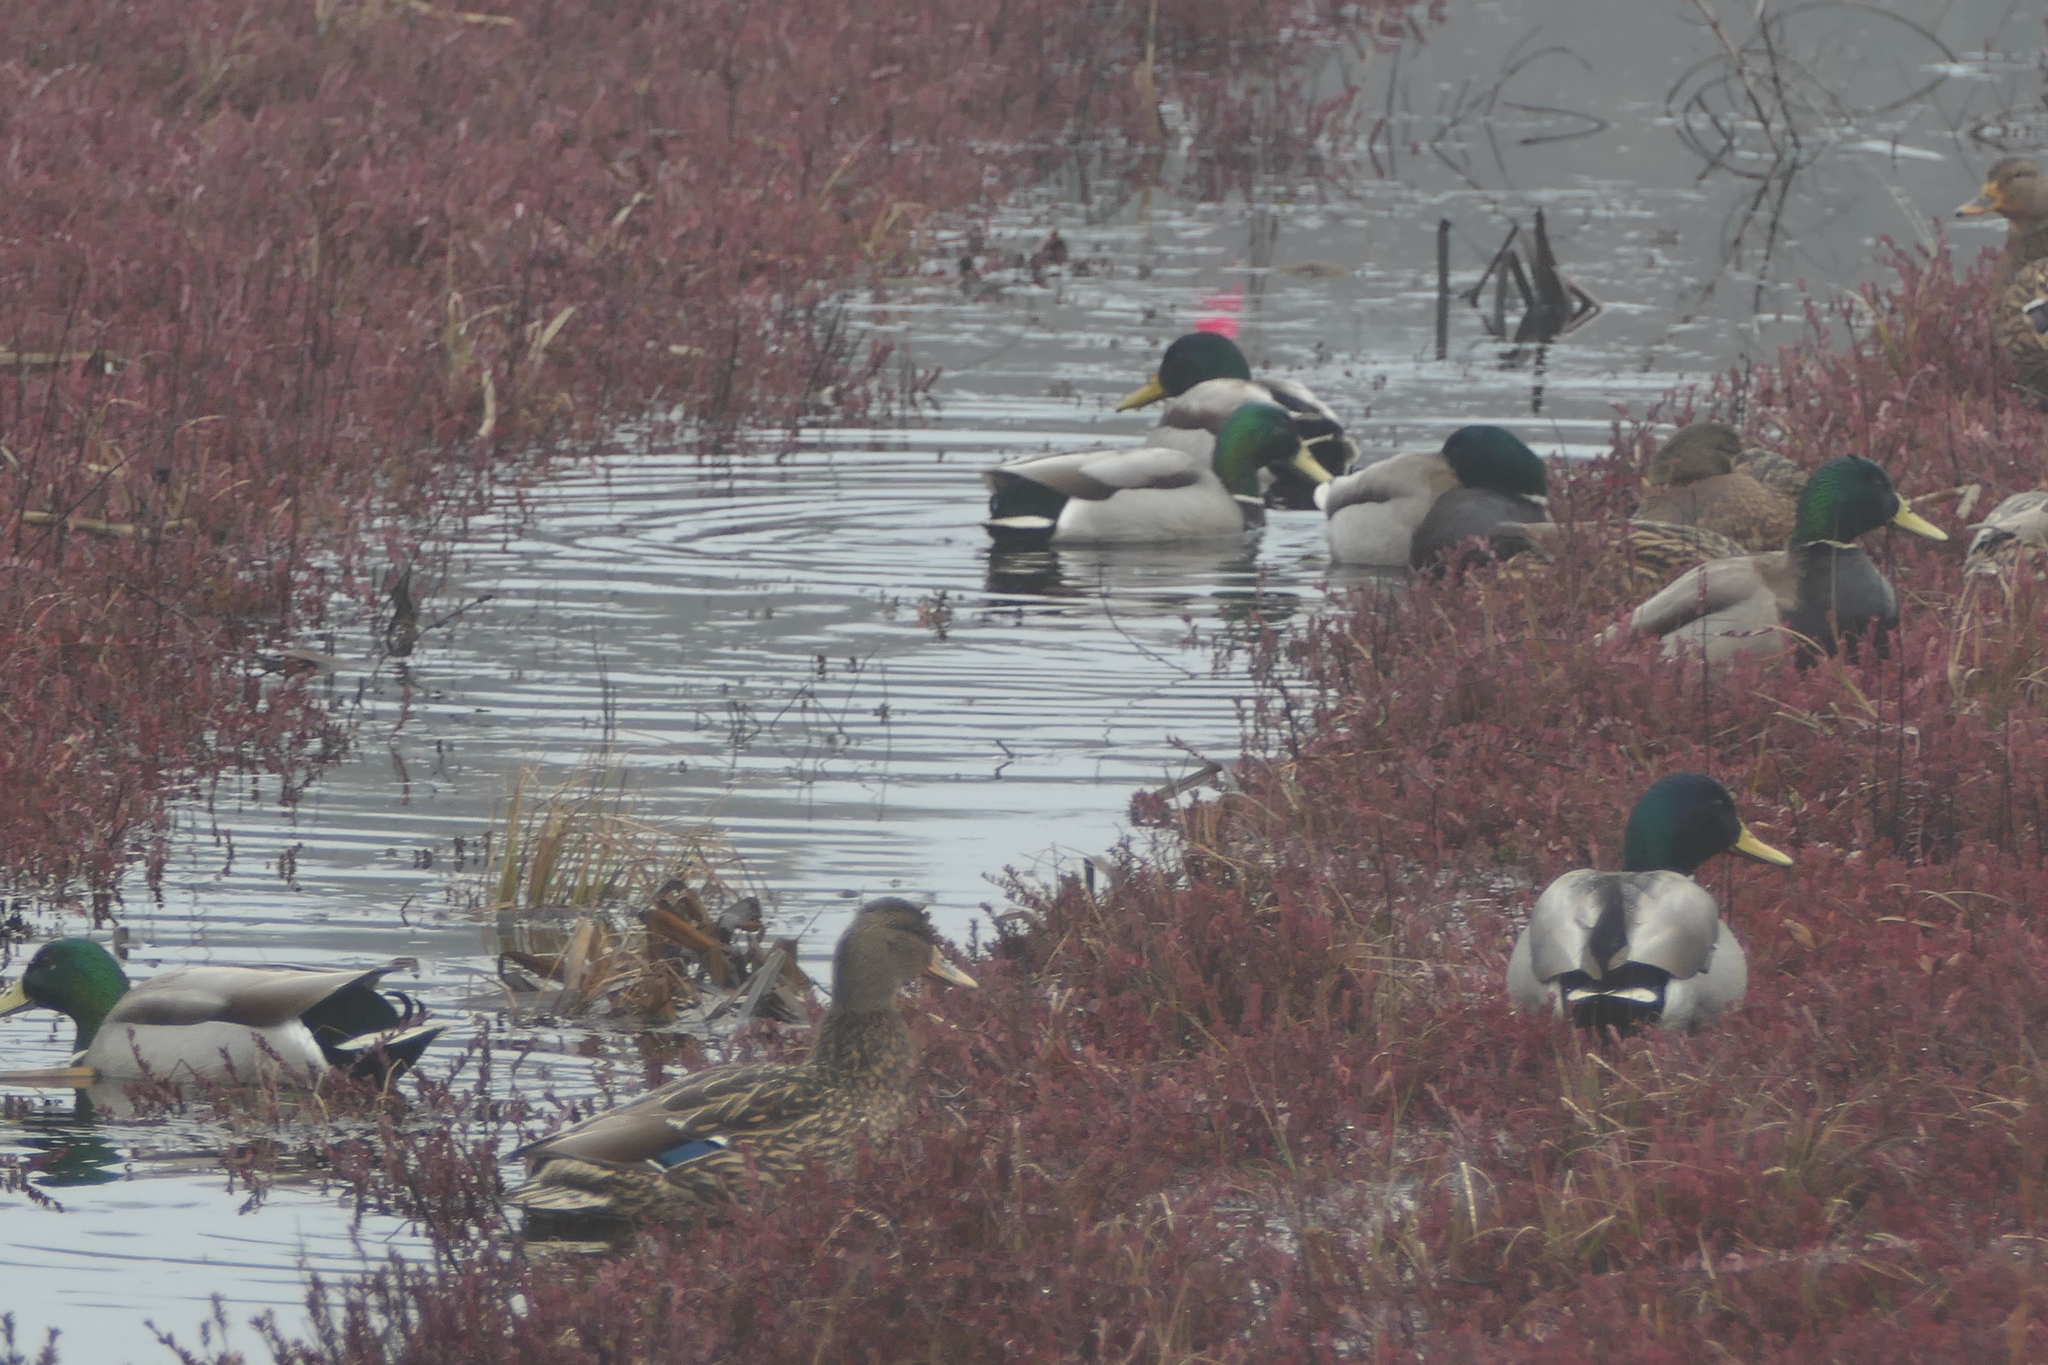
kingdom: Animalia
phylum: Chordata
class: Aves
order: Anseriformes
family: Anatidae
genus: Anas
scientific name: Anas platyrhynchos
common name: Mallard
